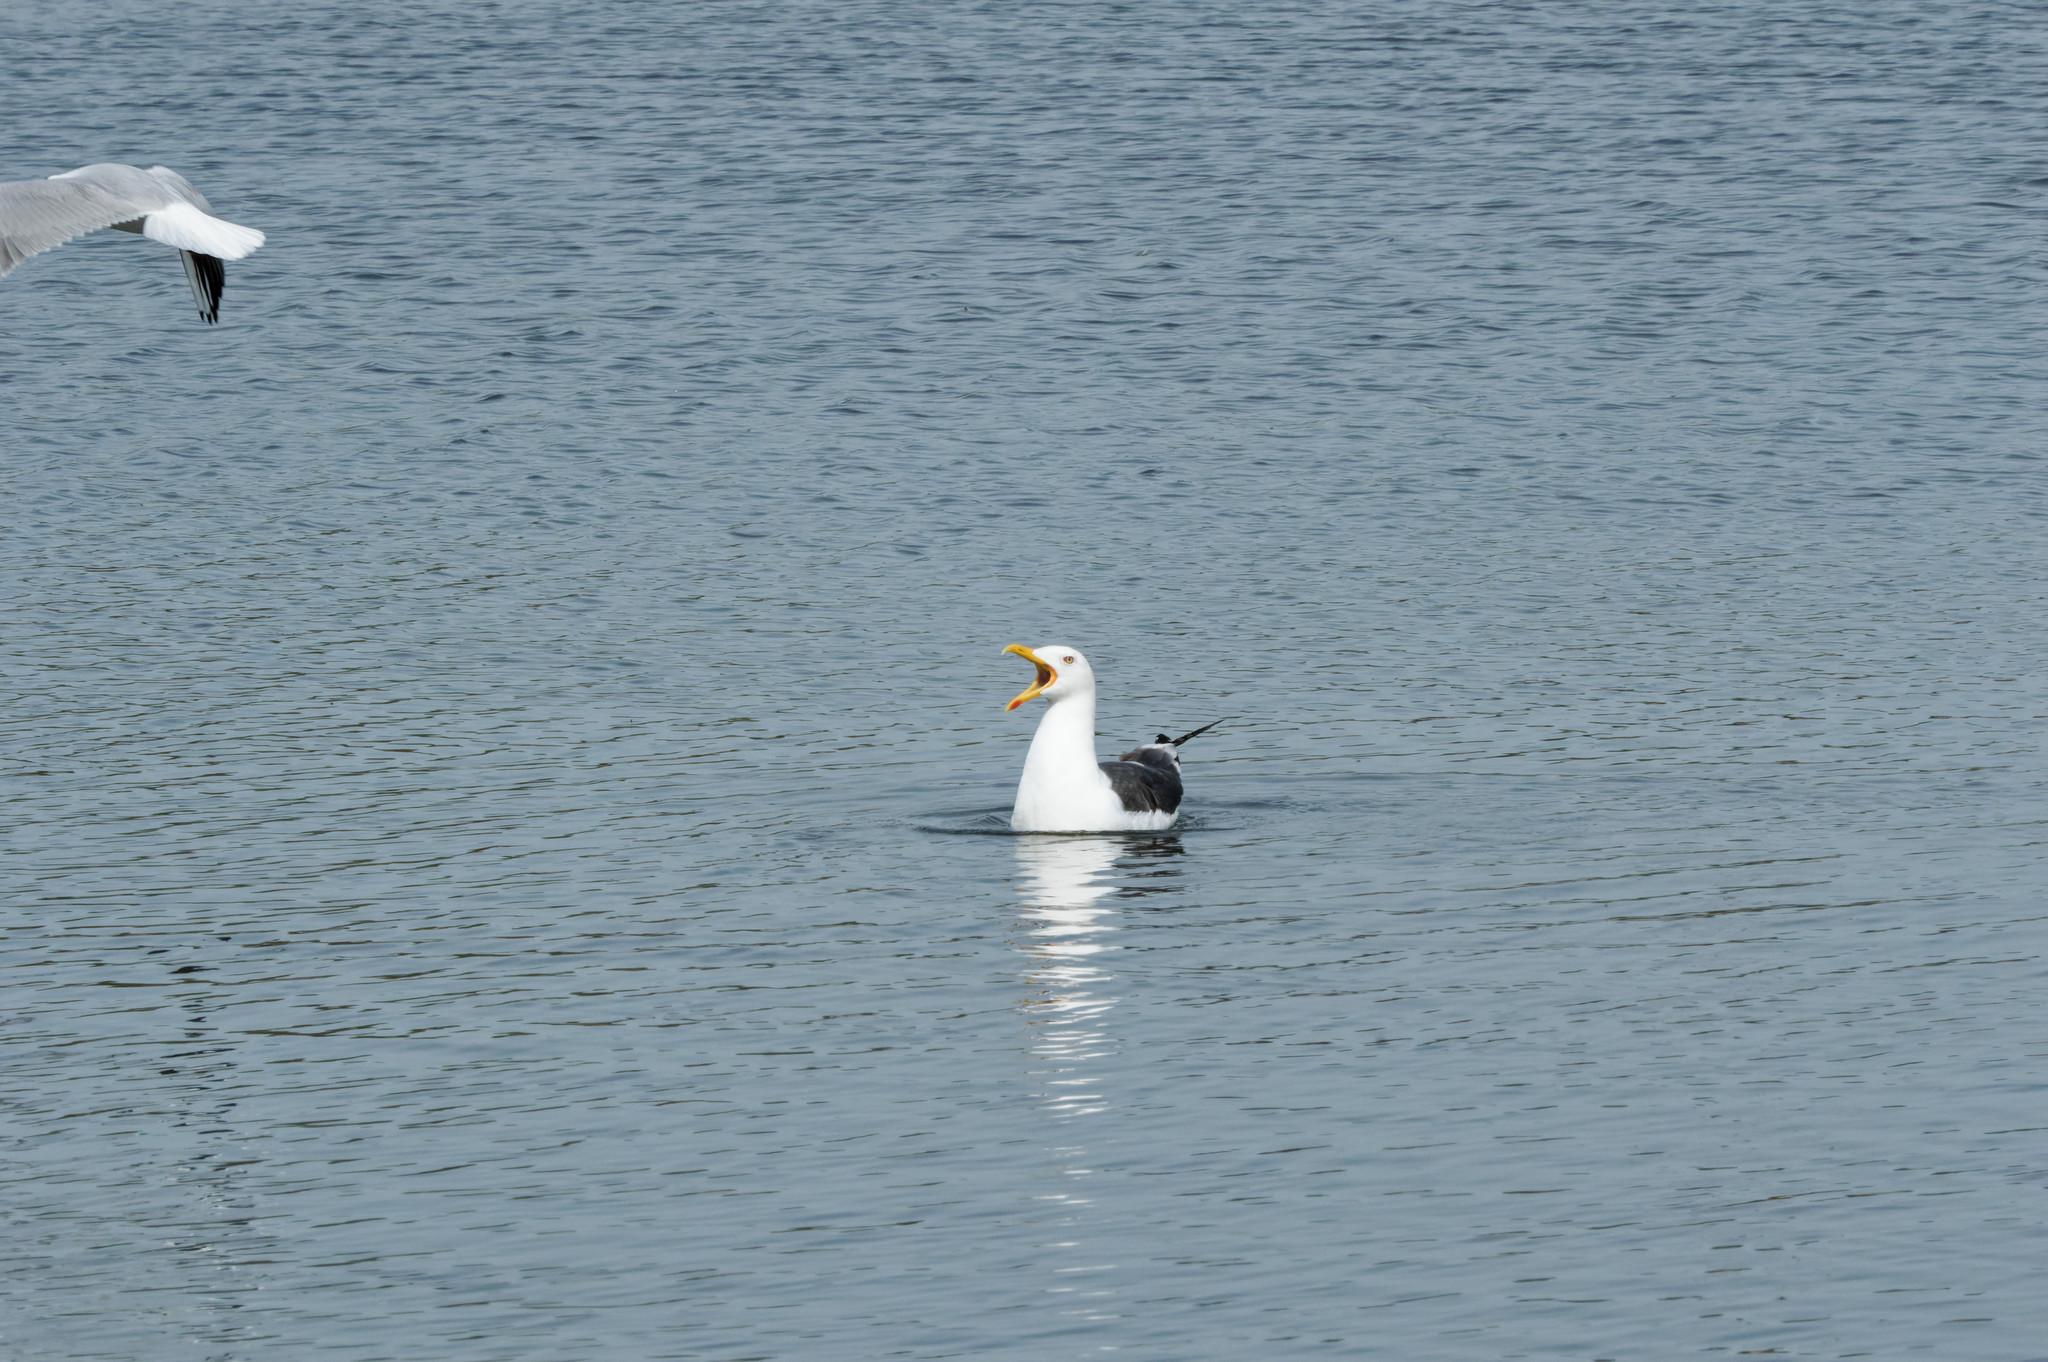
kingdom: Animalia
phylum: Chordata
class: Aves
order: Charadriiformes
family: Laridae
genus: Larus
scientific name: Larus fuscus
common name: Lesser black-backed gull
